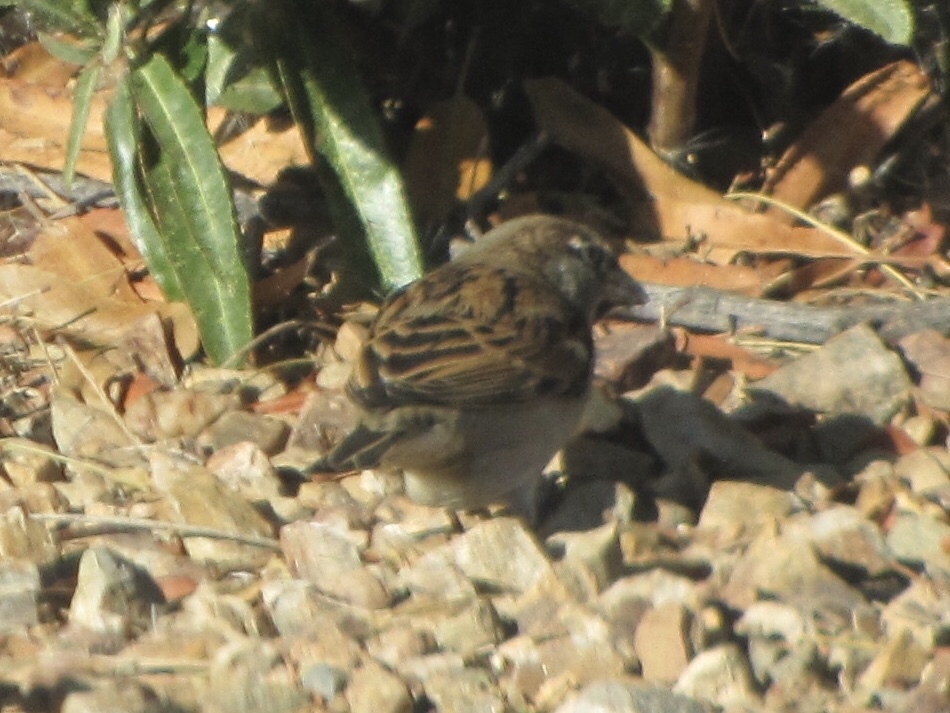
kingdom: Animalia
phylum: Chordata
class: Aves
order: Passeriformes
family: Passeridae
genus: Passer
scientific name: Passer domesticus
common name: House sparrow
